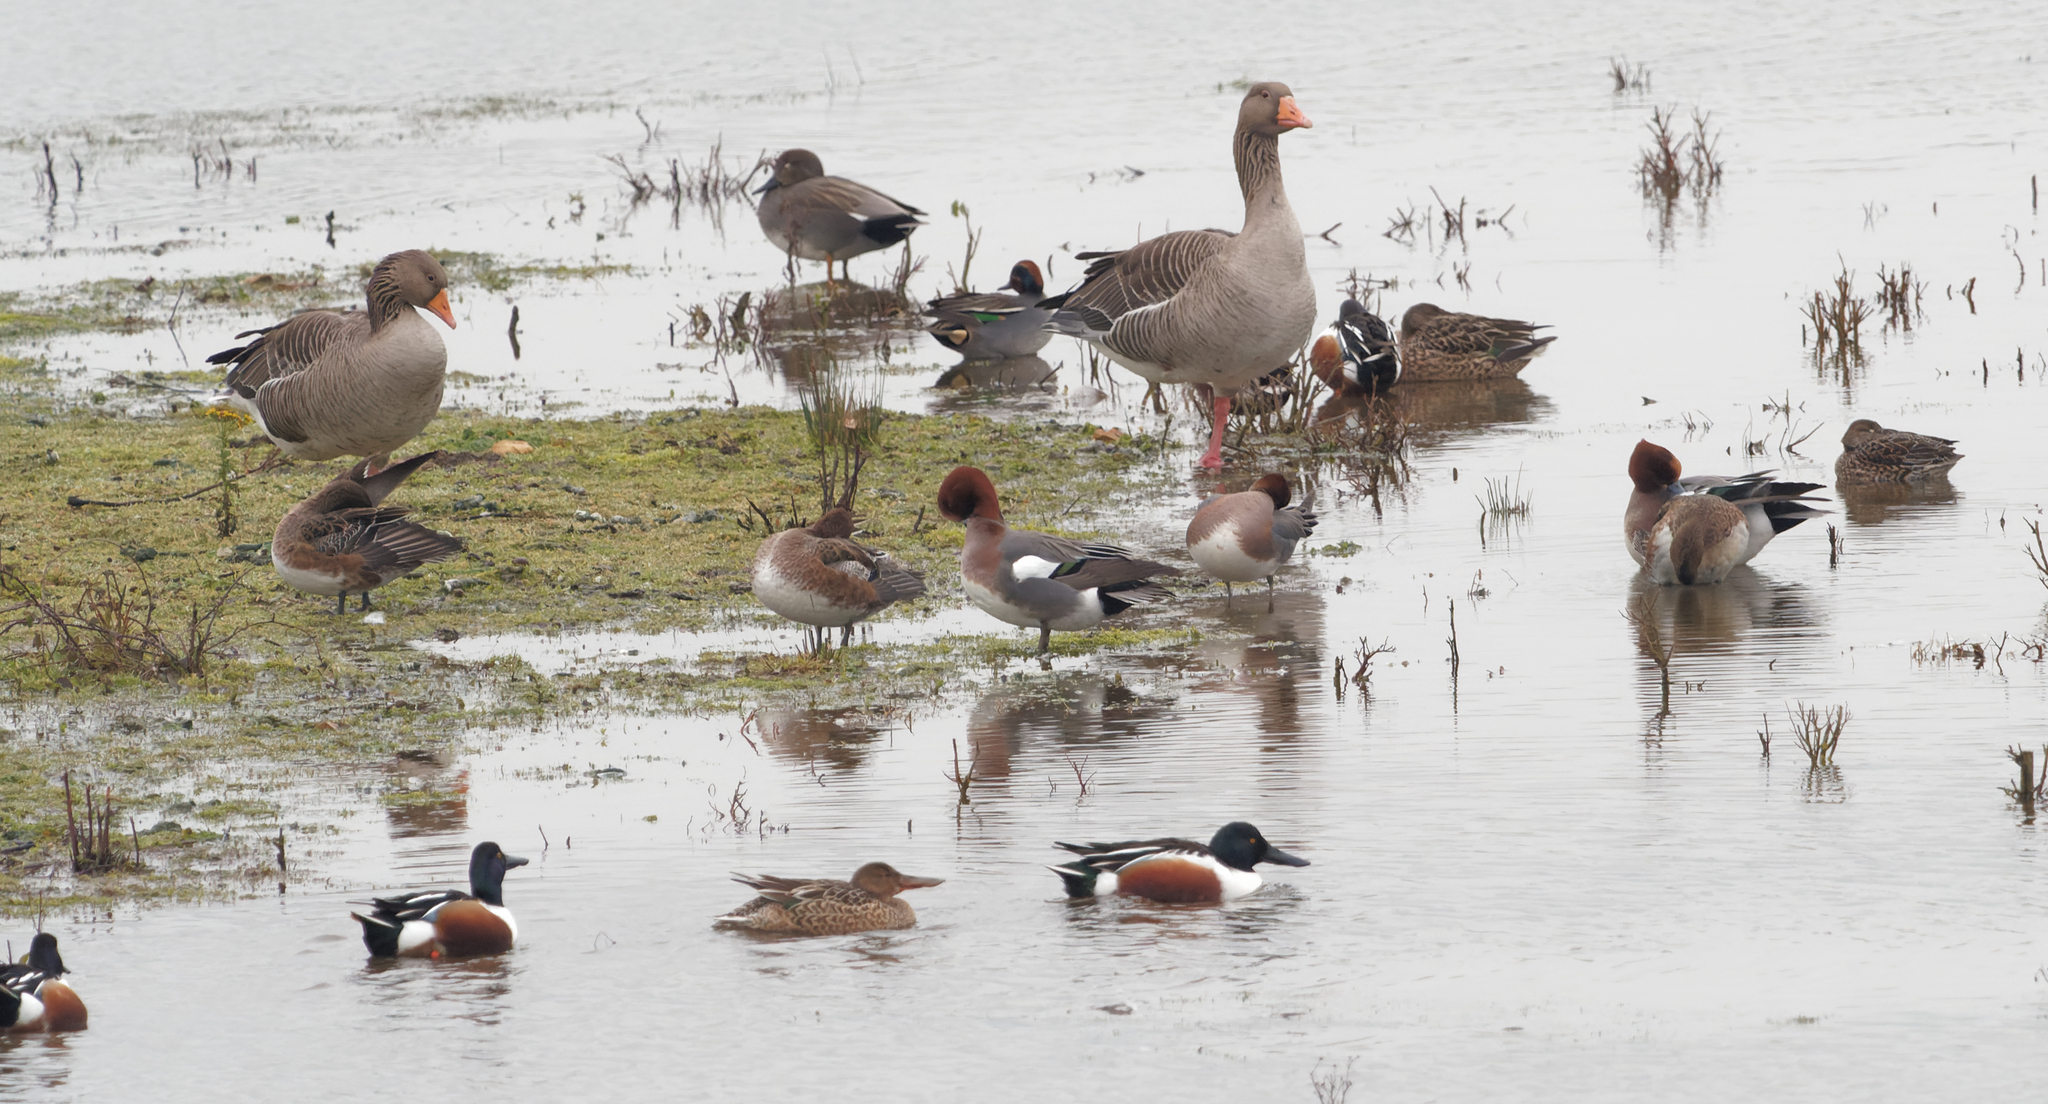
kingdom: Animalia
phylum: Chordata
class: Aves
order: Anseriformes
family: Anatidae
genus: Anas
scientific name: Anas crecca
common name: Eurasian teal
